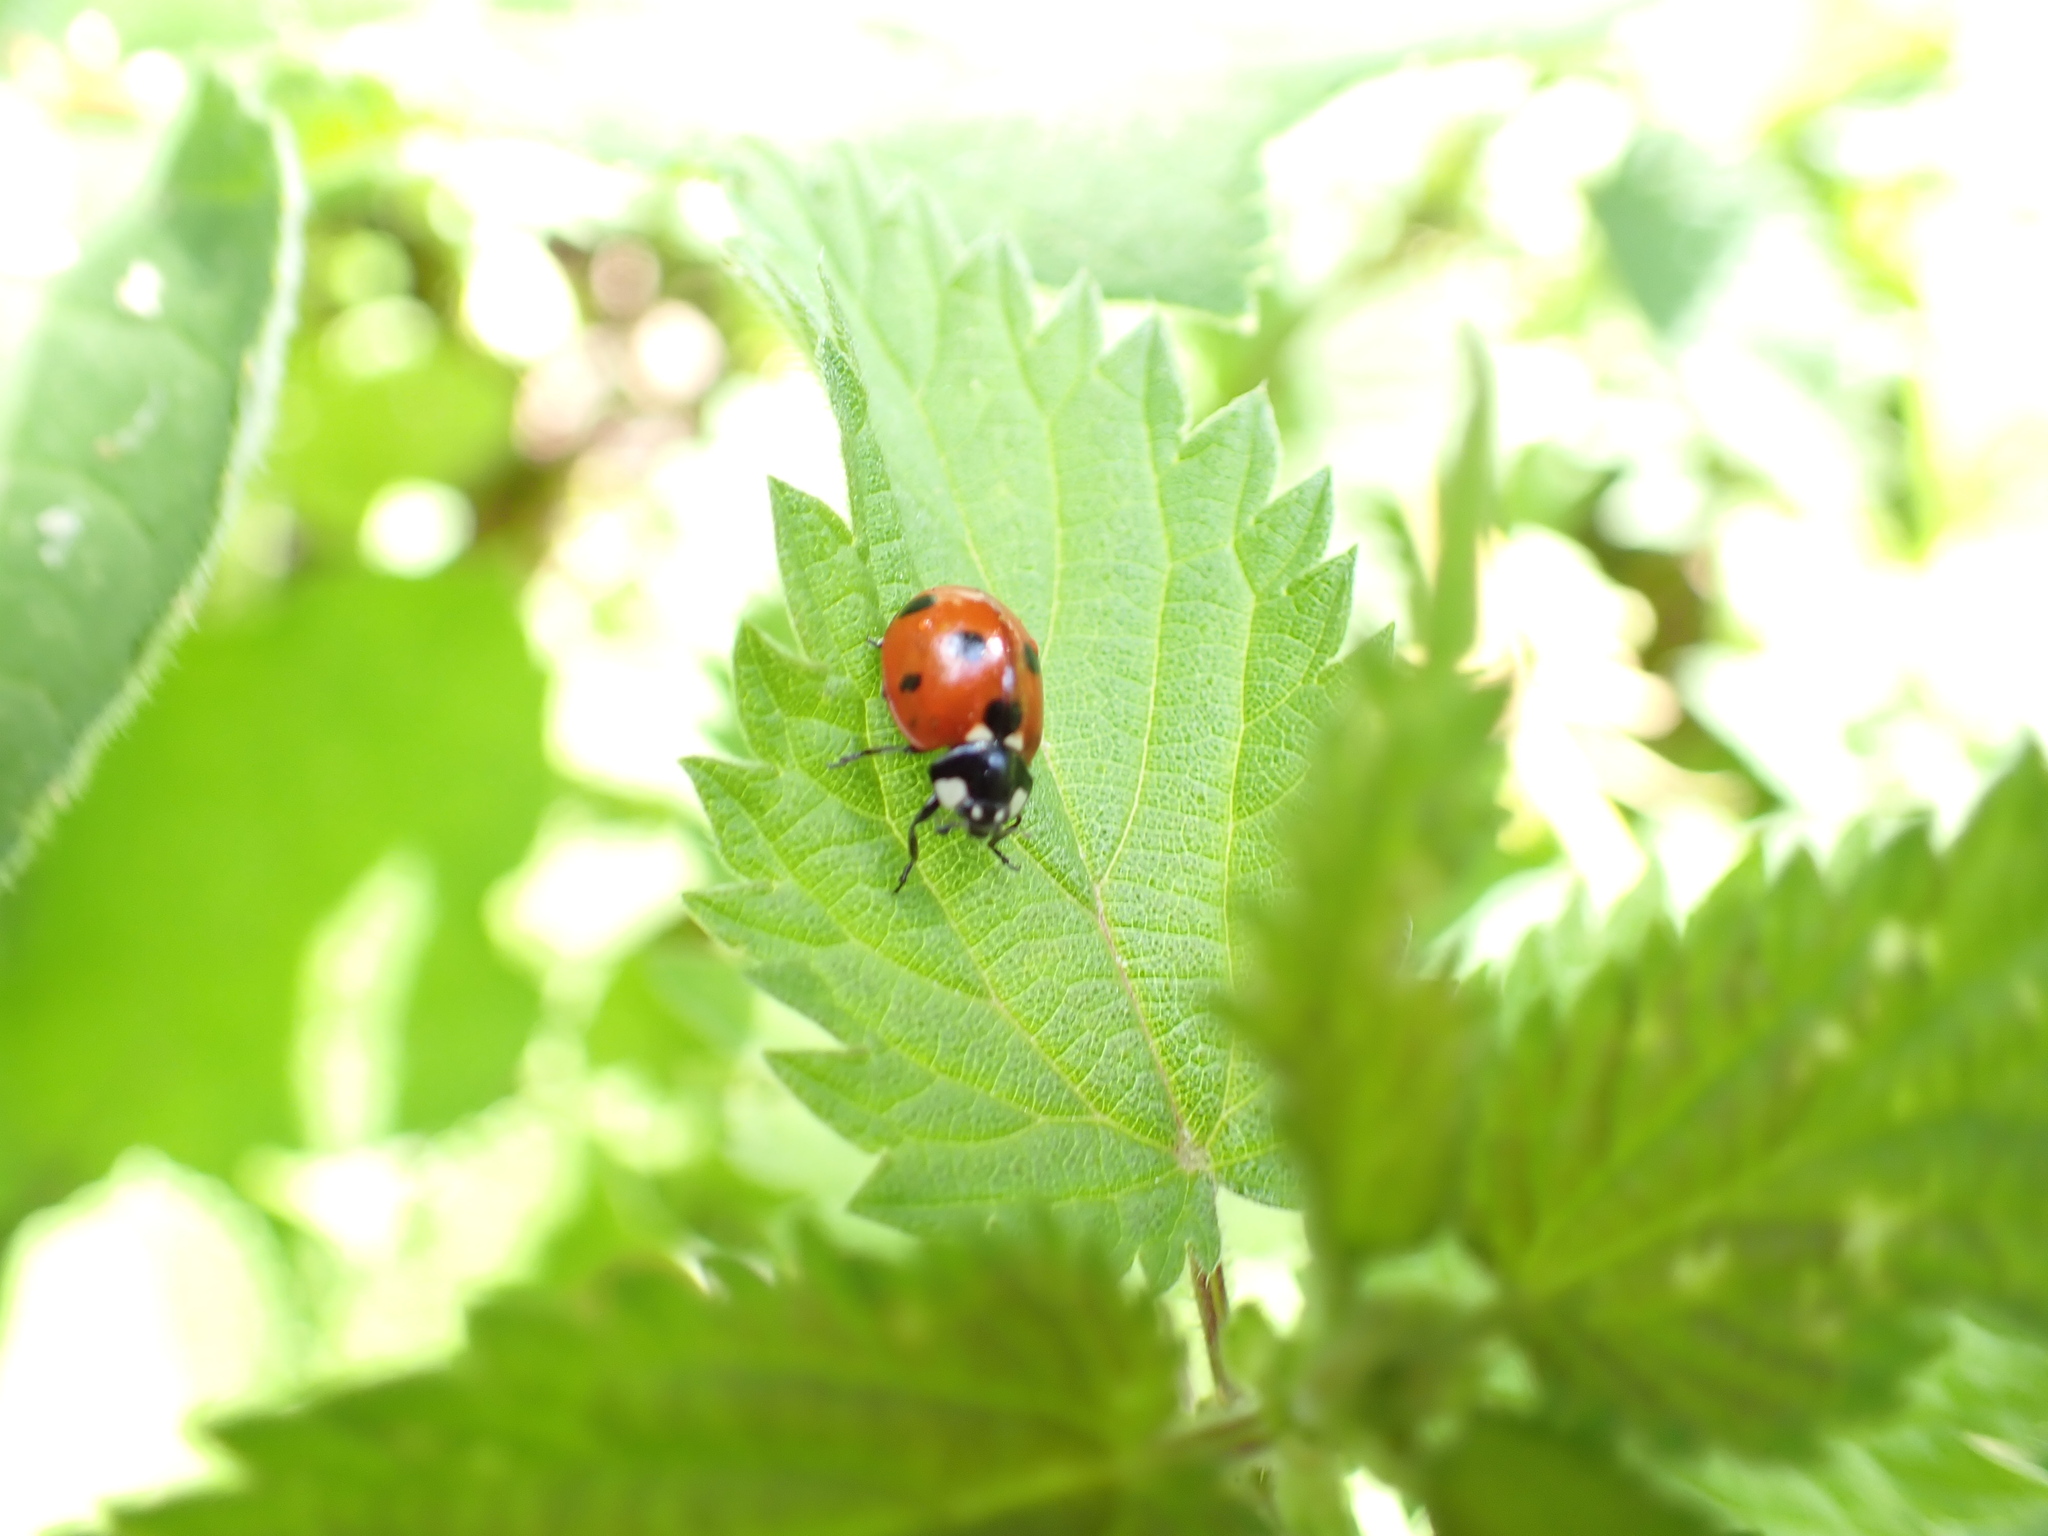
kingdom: Animalia
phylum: Arthropoda
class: Insecta
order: Coleoptera
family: Coccinellidae
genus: Coccinella
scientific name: Coccinella septempunctata
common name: Sevenspotted lady beetle
